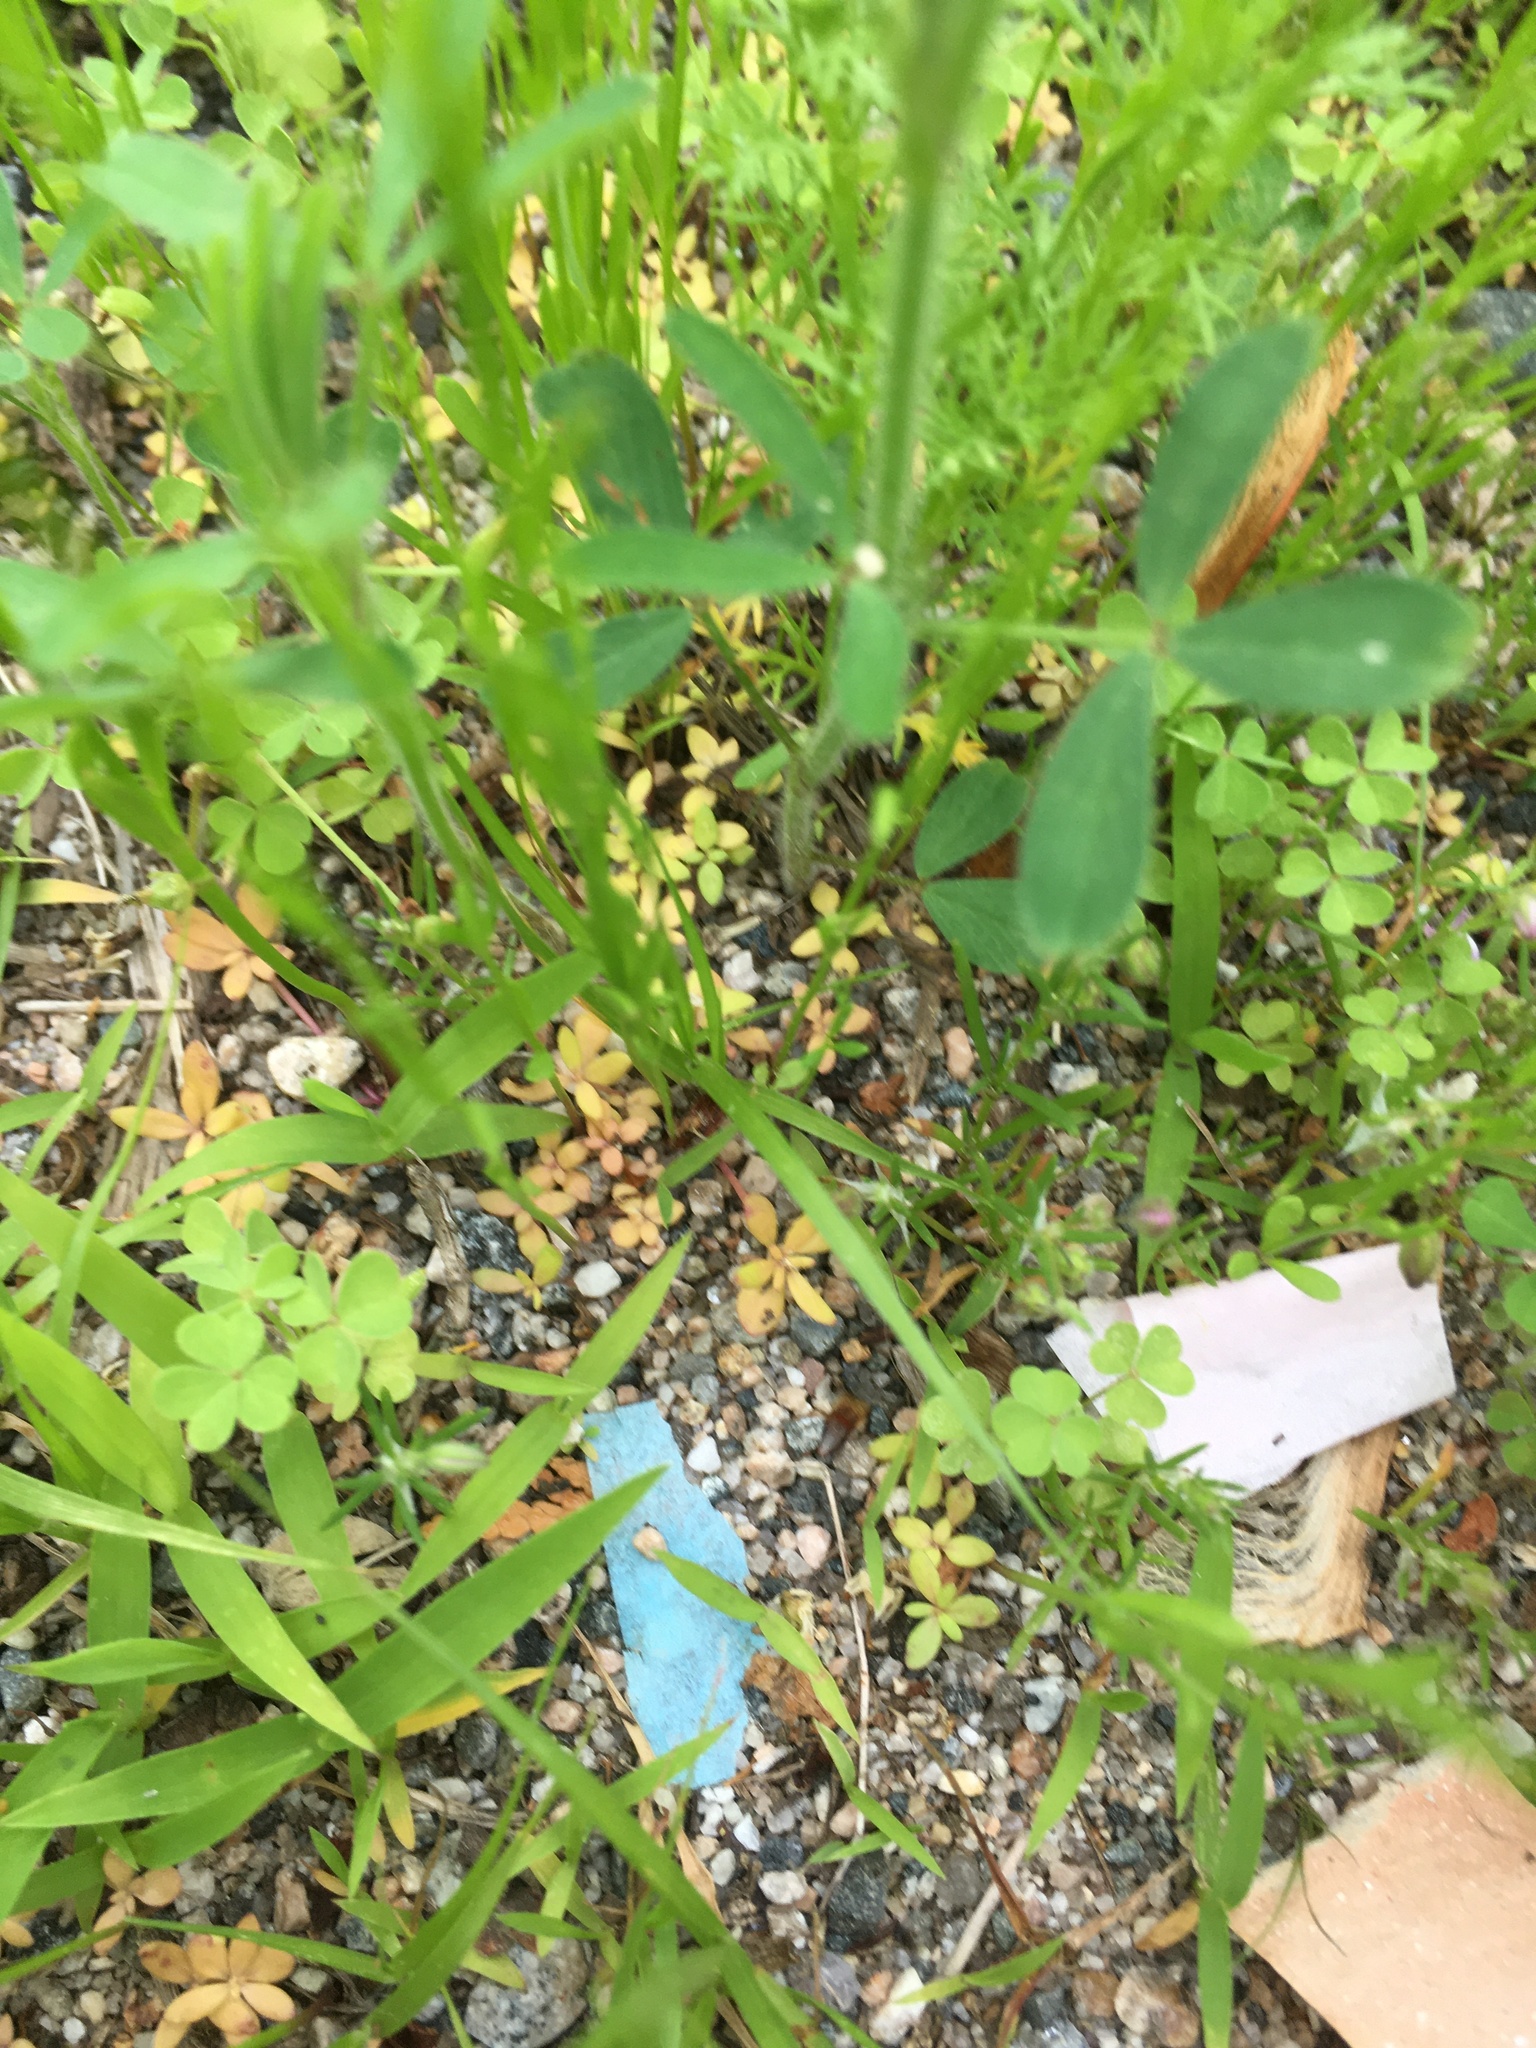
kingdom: Plantae
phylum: Tracheophyta
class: Magnoliopsida
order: Lamiales
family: Plantaginaceae
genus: Nuttallanthus
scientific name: Nuttallanthus canadensis
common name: Blue toadflax
